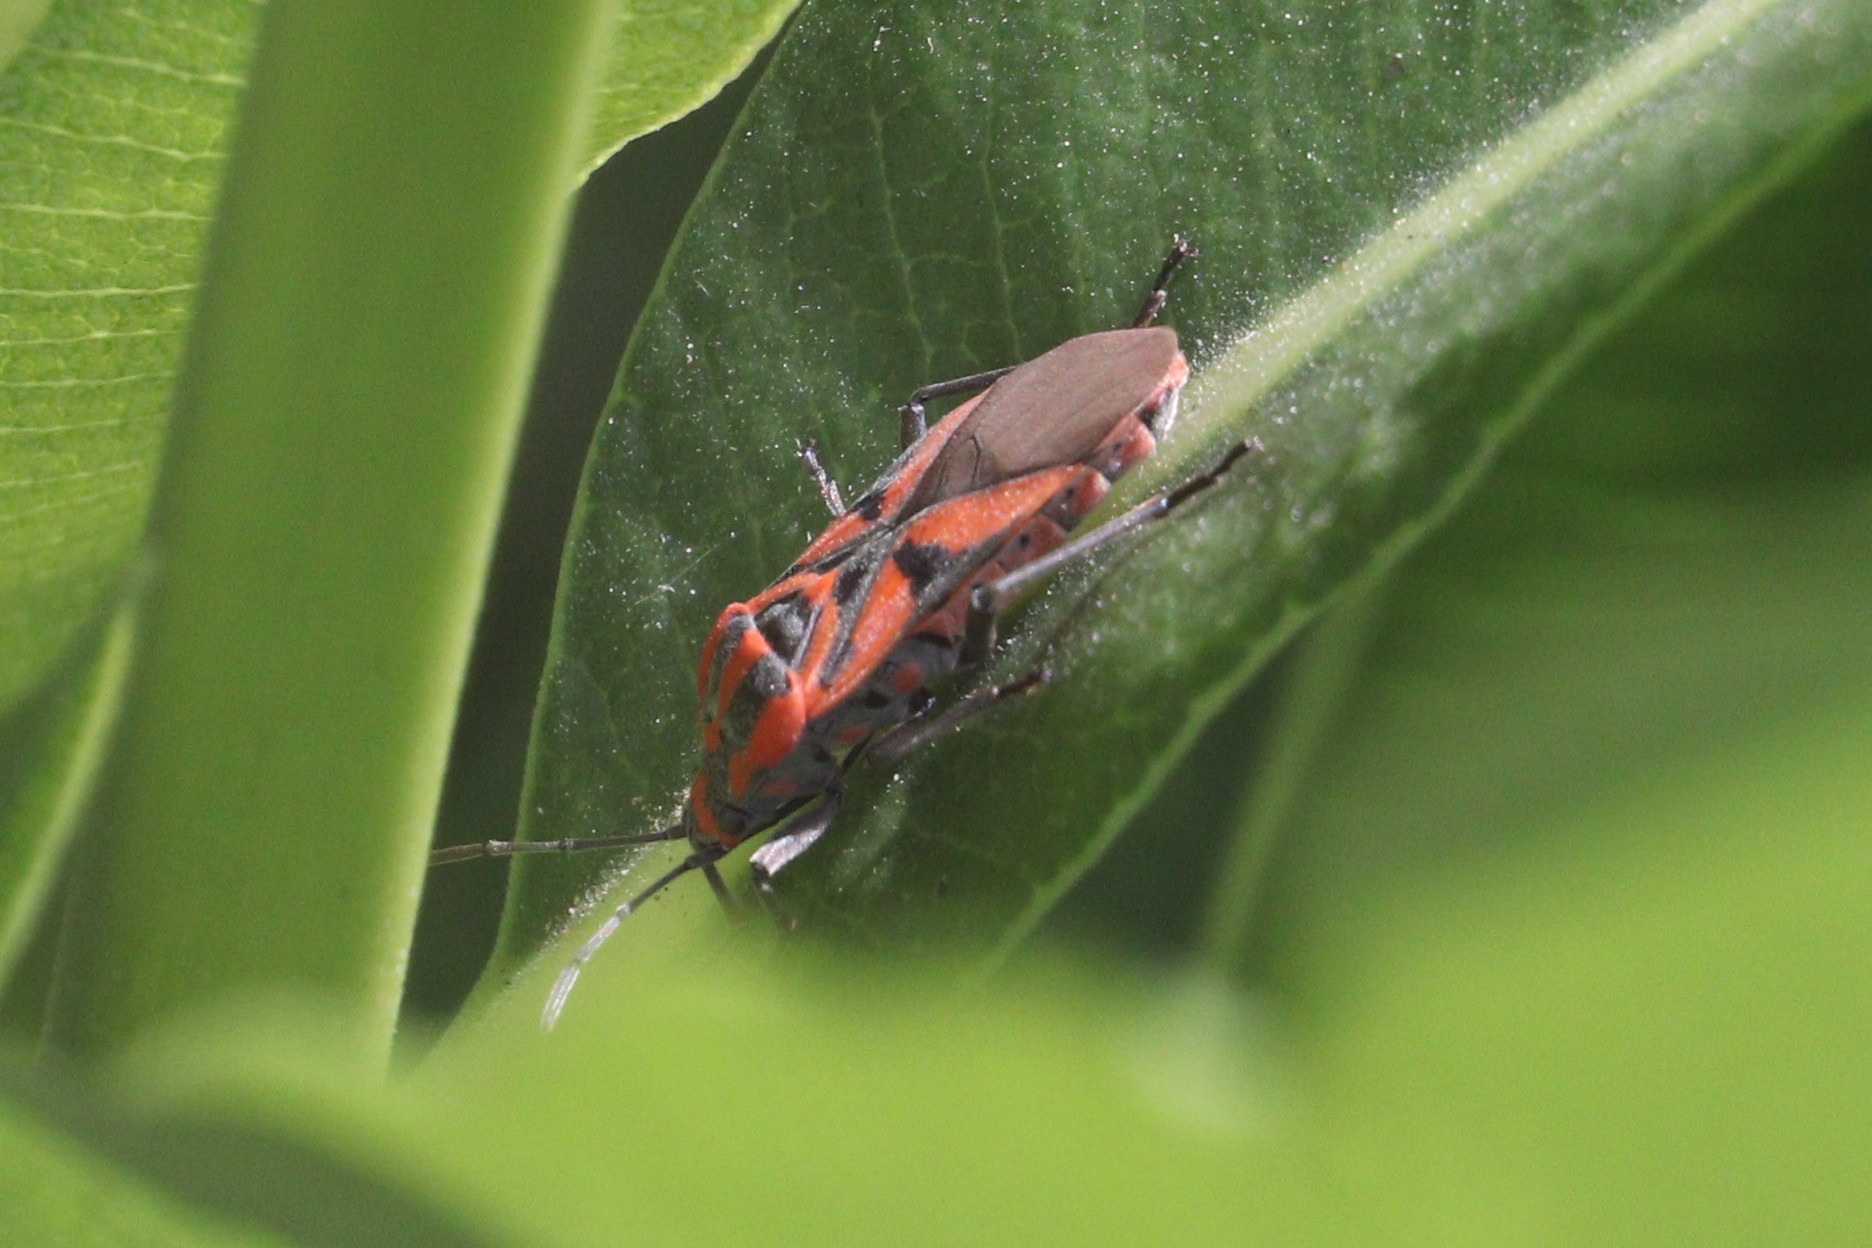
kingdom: Animalia
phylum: Arthropoda
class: Insecta
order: Hemiptera
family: Lygaeidae
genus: Spilostethus
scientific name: Spilostethus furcula
